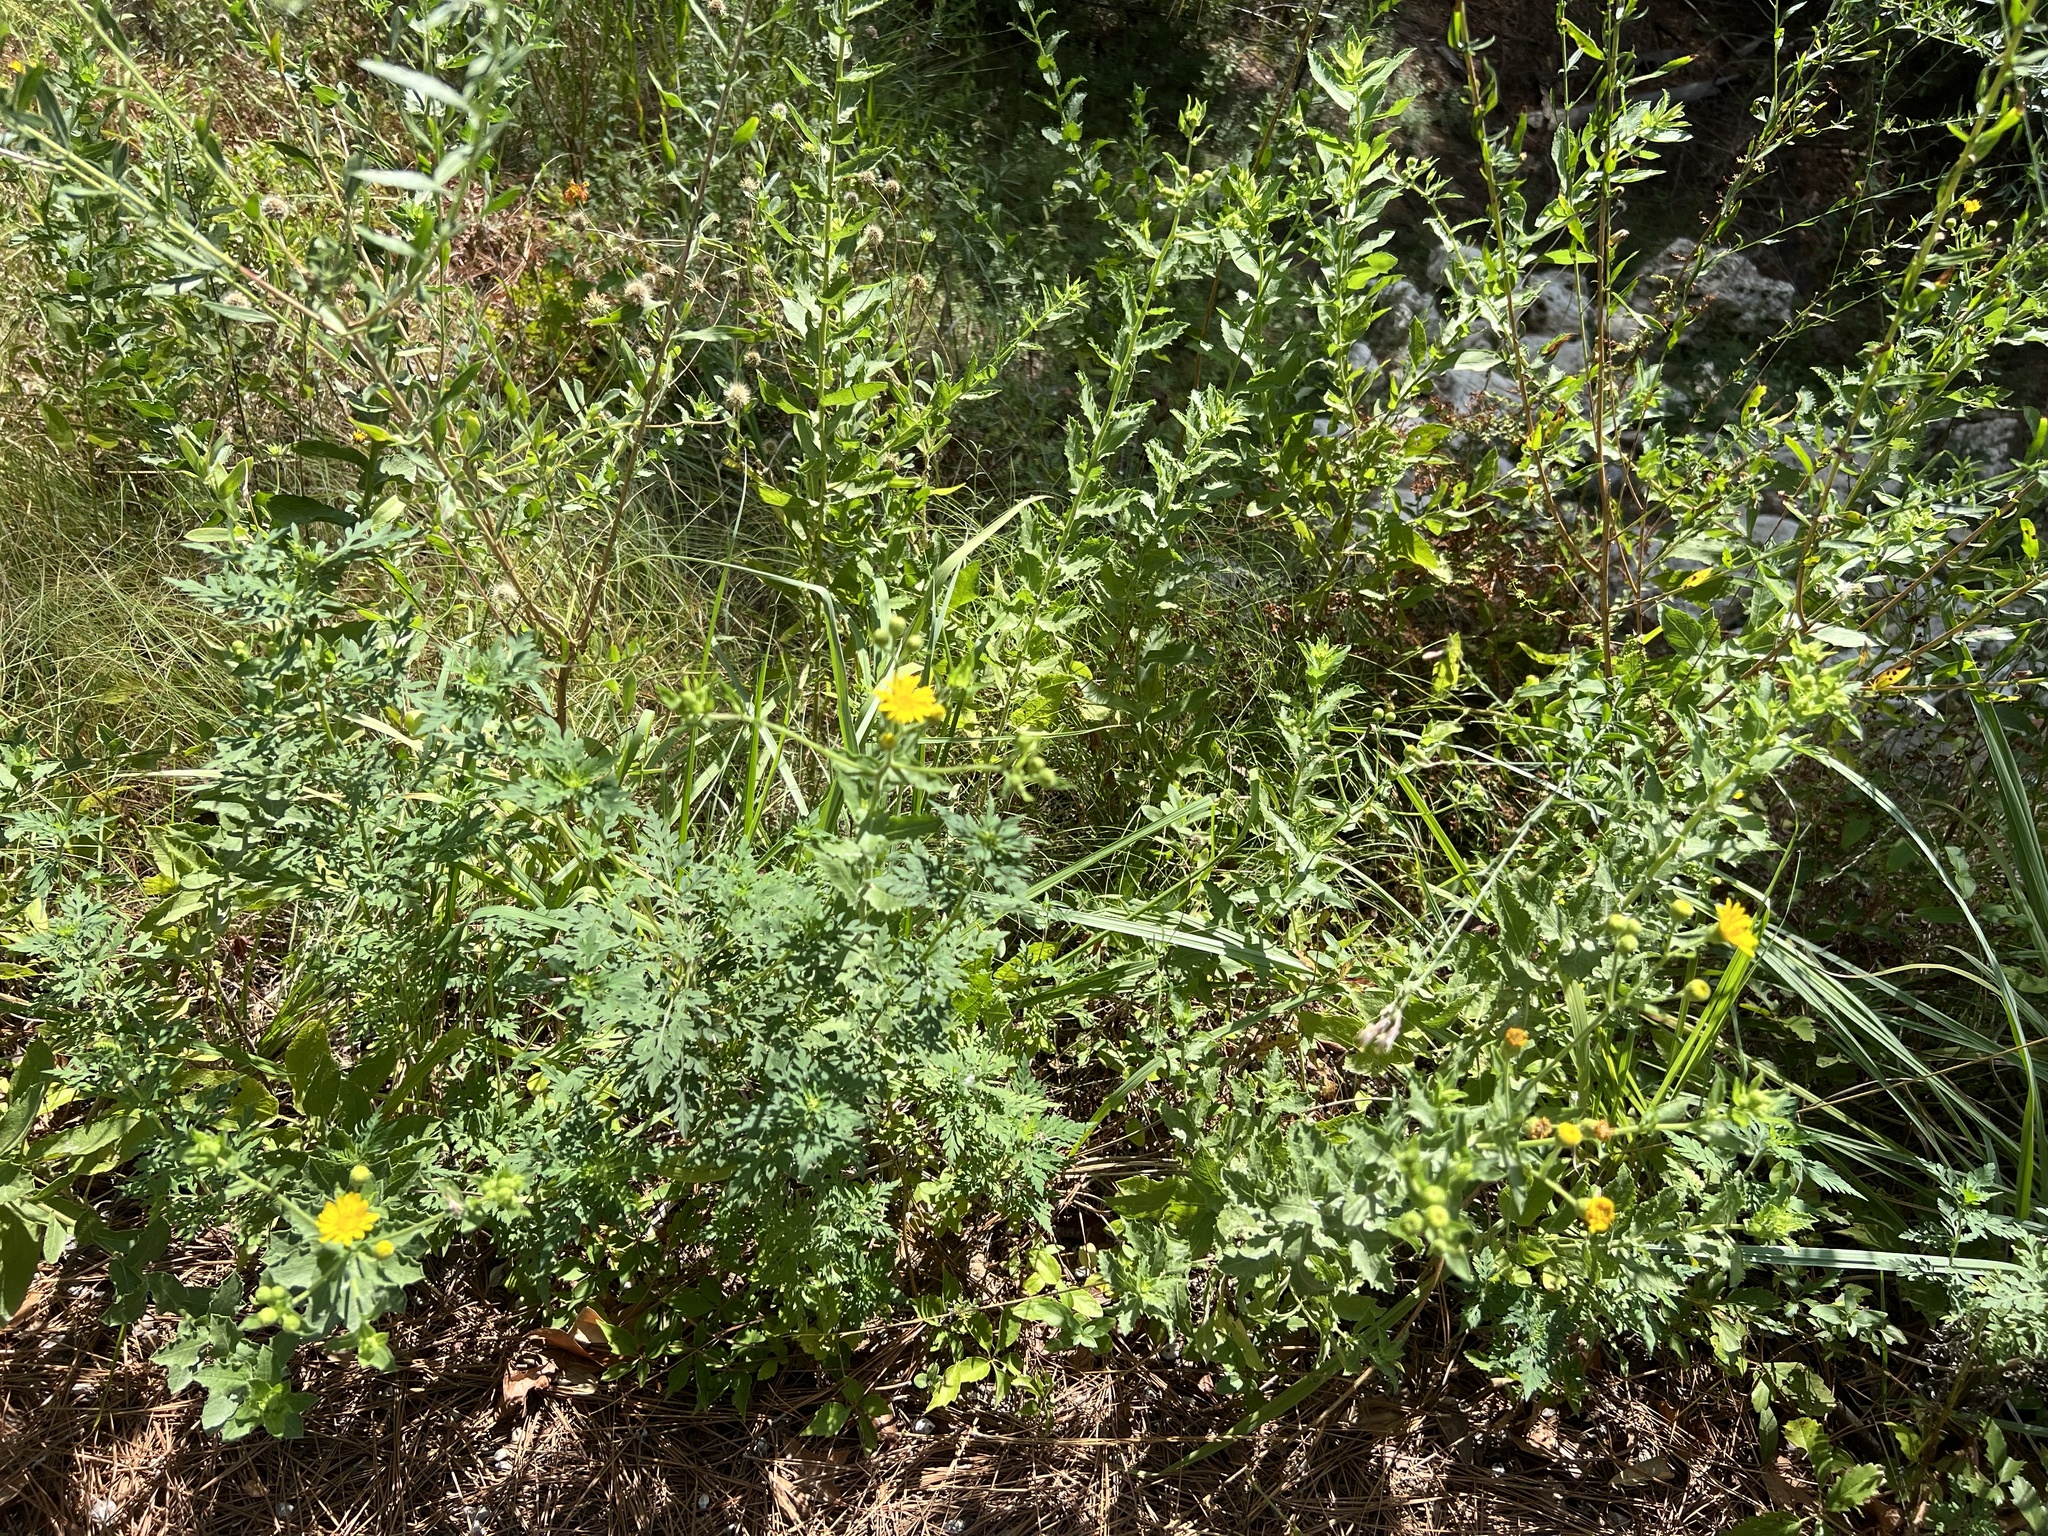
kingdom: Plantae
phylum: Tracheophyta
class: Magnoliopsida
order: Asterales
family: Asteraceae
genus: Heterotheca
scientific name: Heterotheca subaxillaris
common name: Camphorweed
